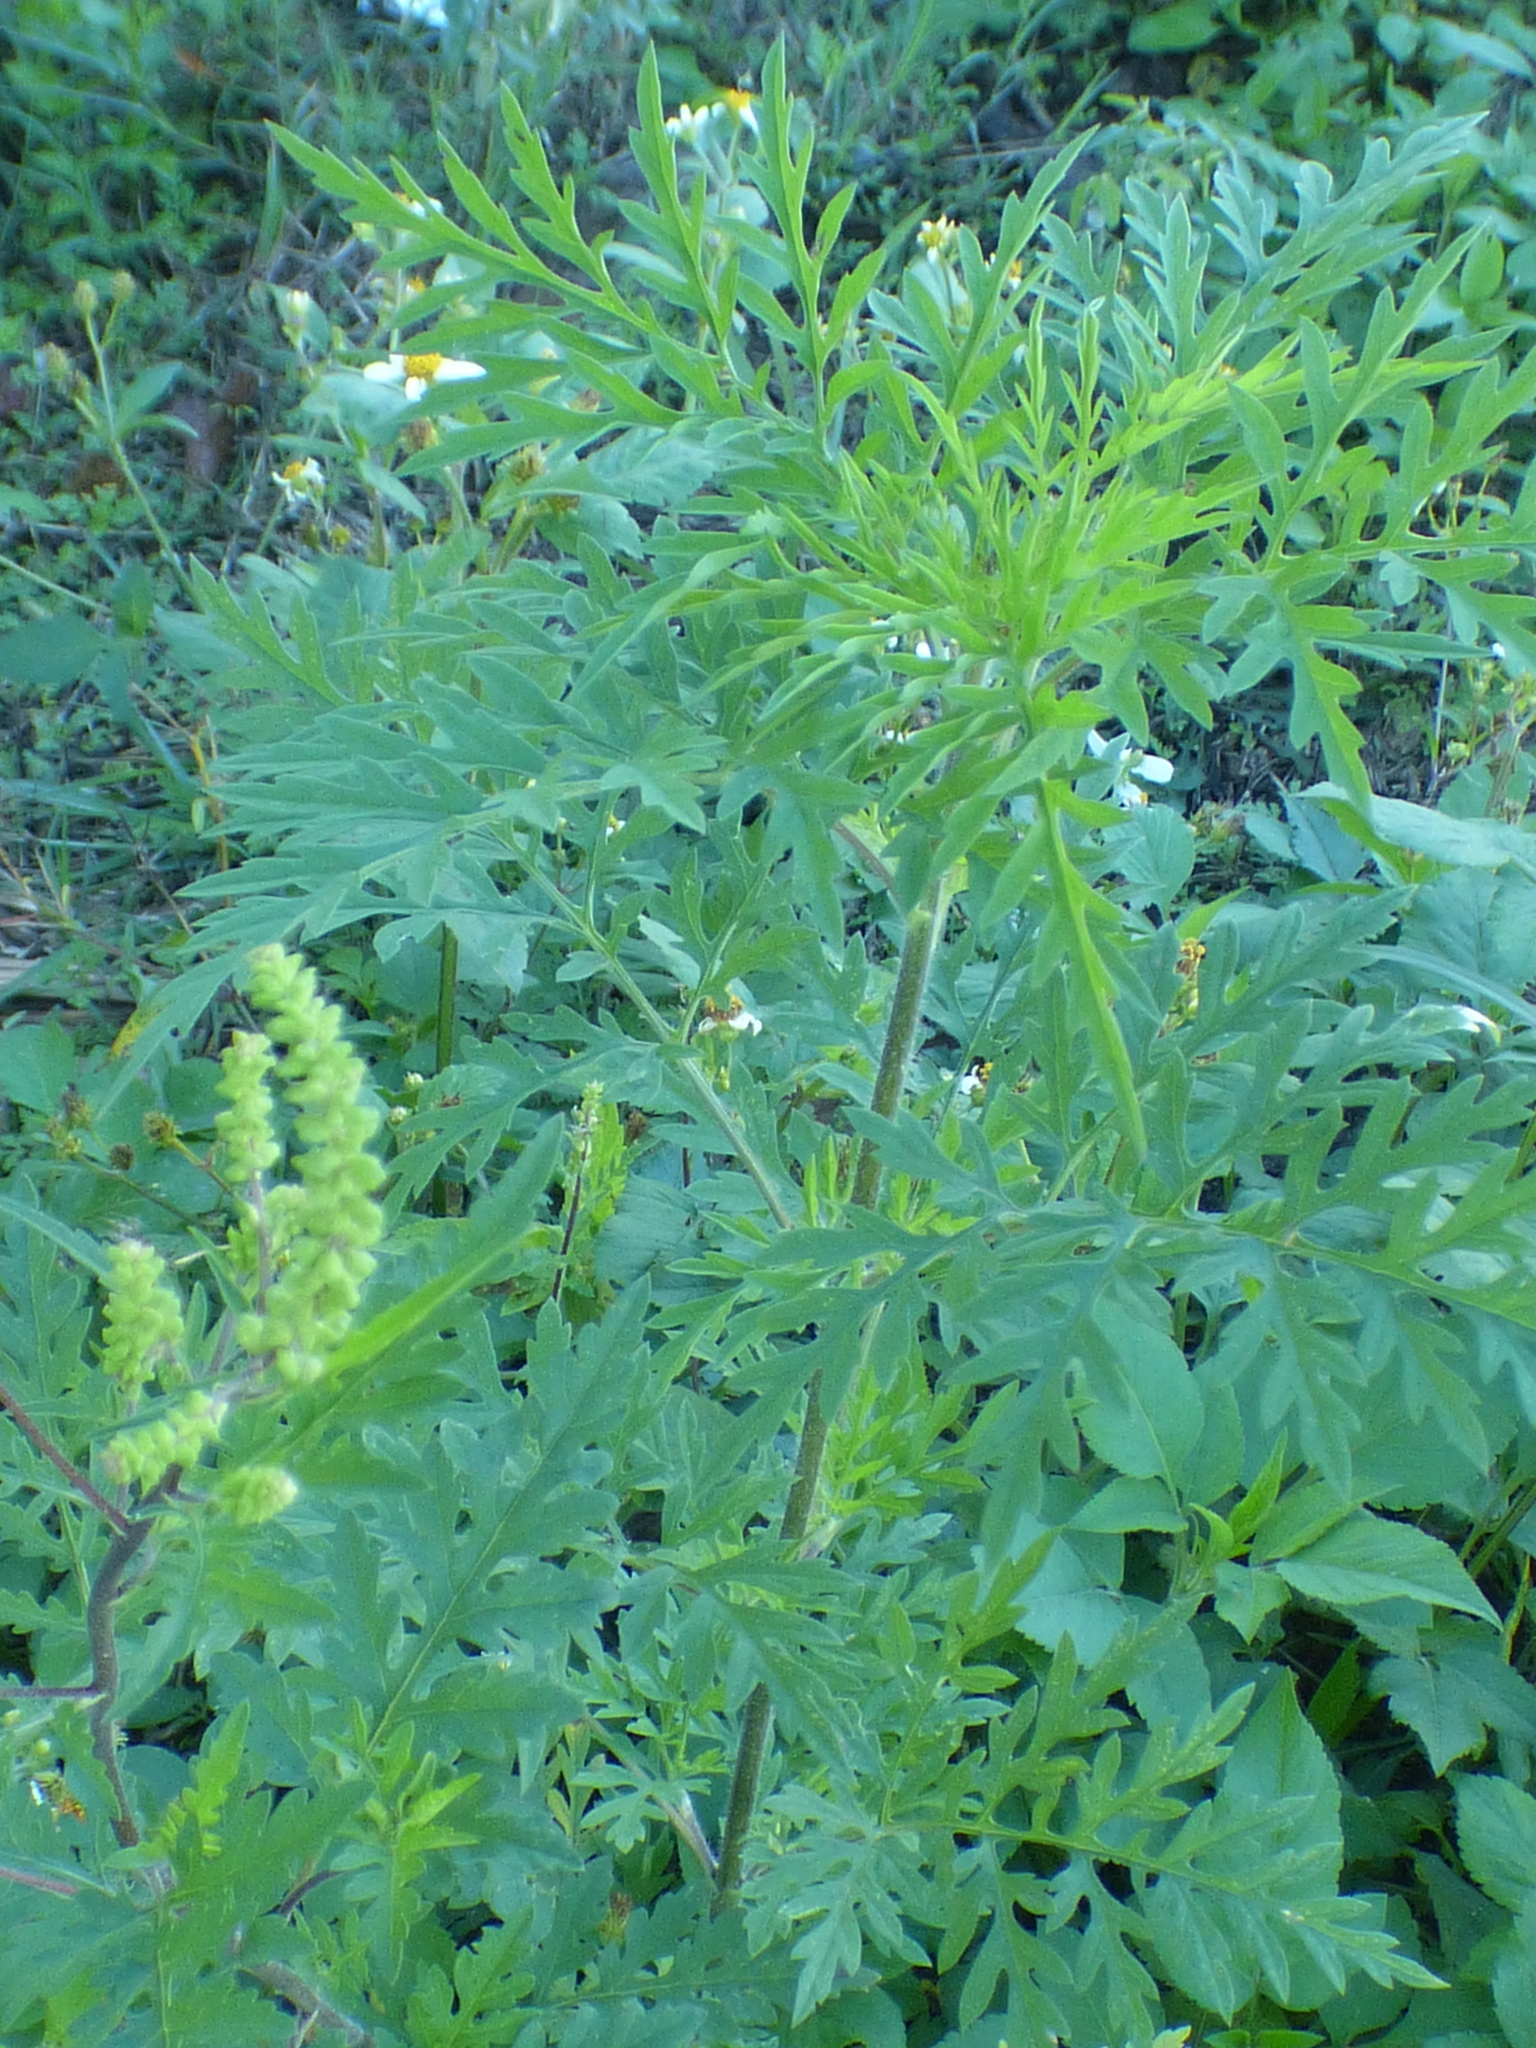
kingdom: Plantae
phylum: Tracheophyta
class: Magnoliopsida
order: Asterales
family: Asteraceae
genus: Ambrosia
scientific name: Ambrosia artemisiifolia
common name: Annual ragweed
